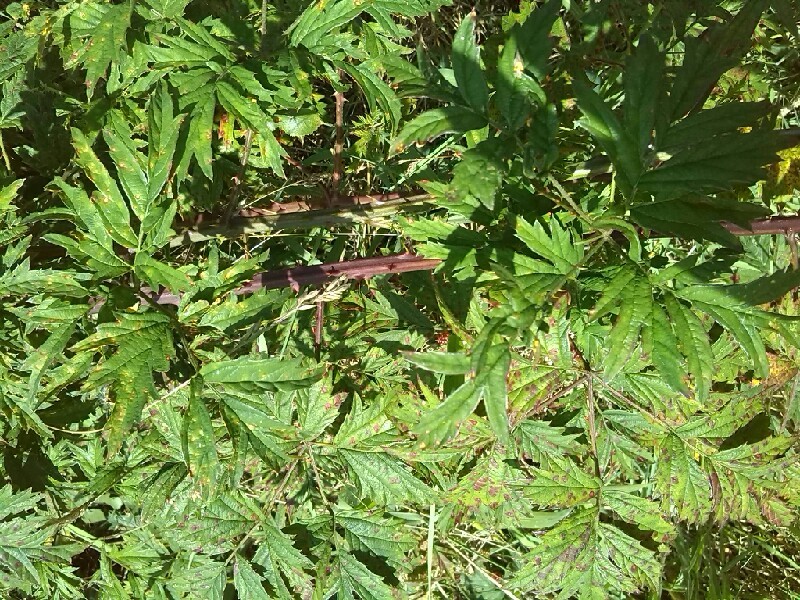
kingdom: Plantae
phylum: Tracheophyta
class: Magnoliopsida
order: Rosales
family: Rosaceae
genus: Rubus
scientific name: Rubus laciniatus
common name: Evergreen blackberry
